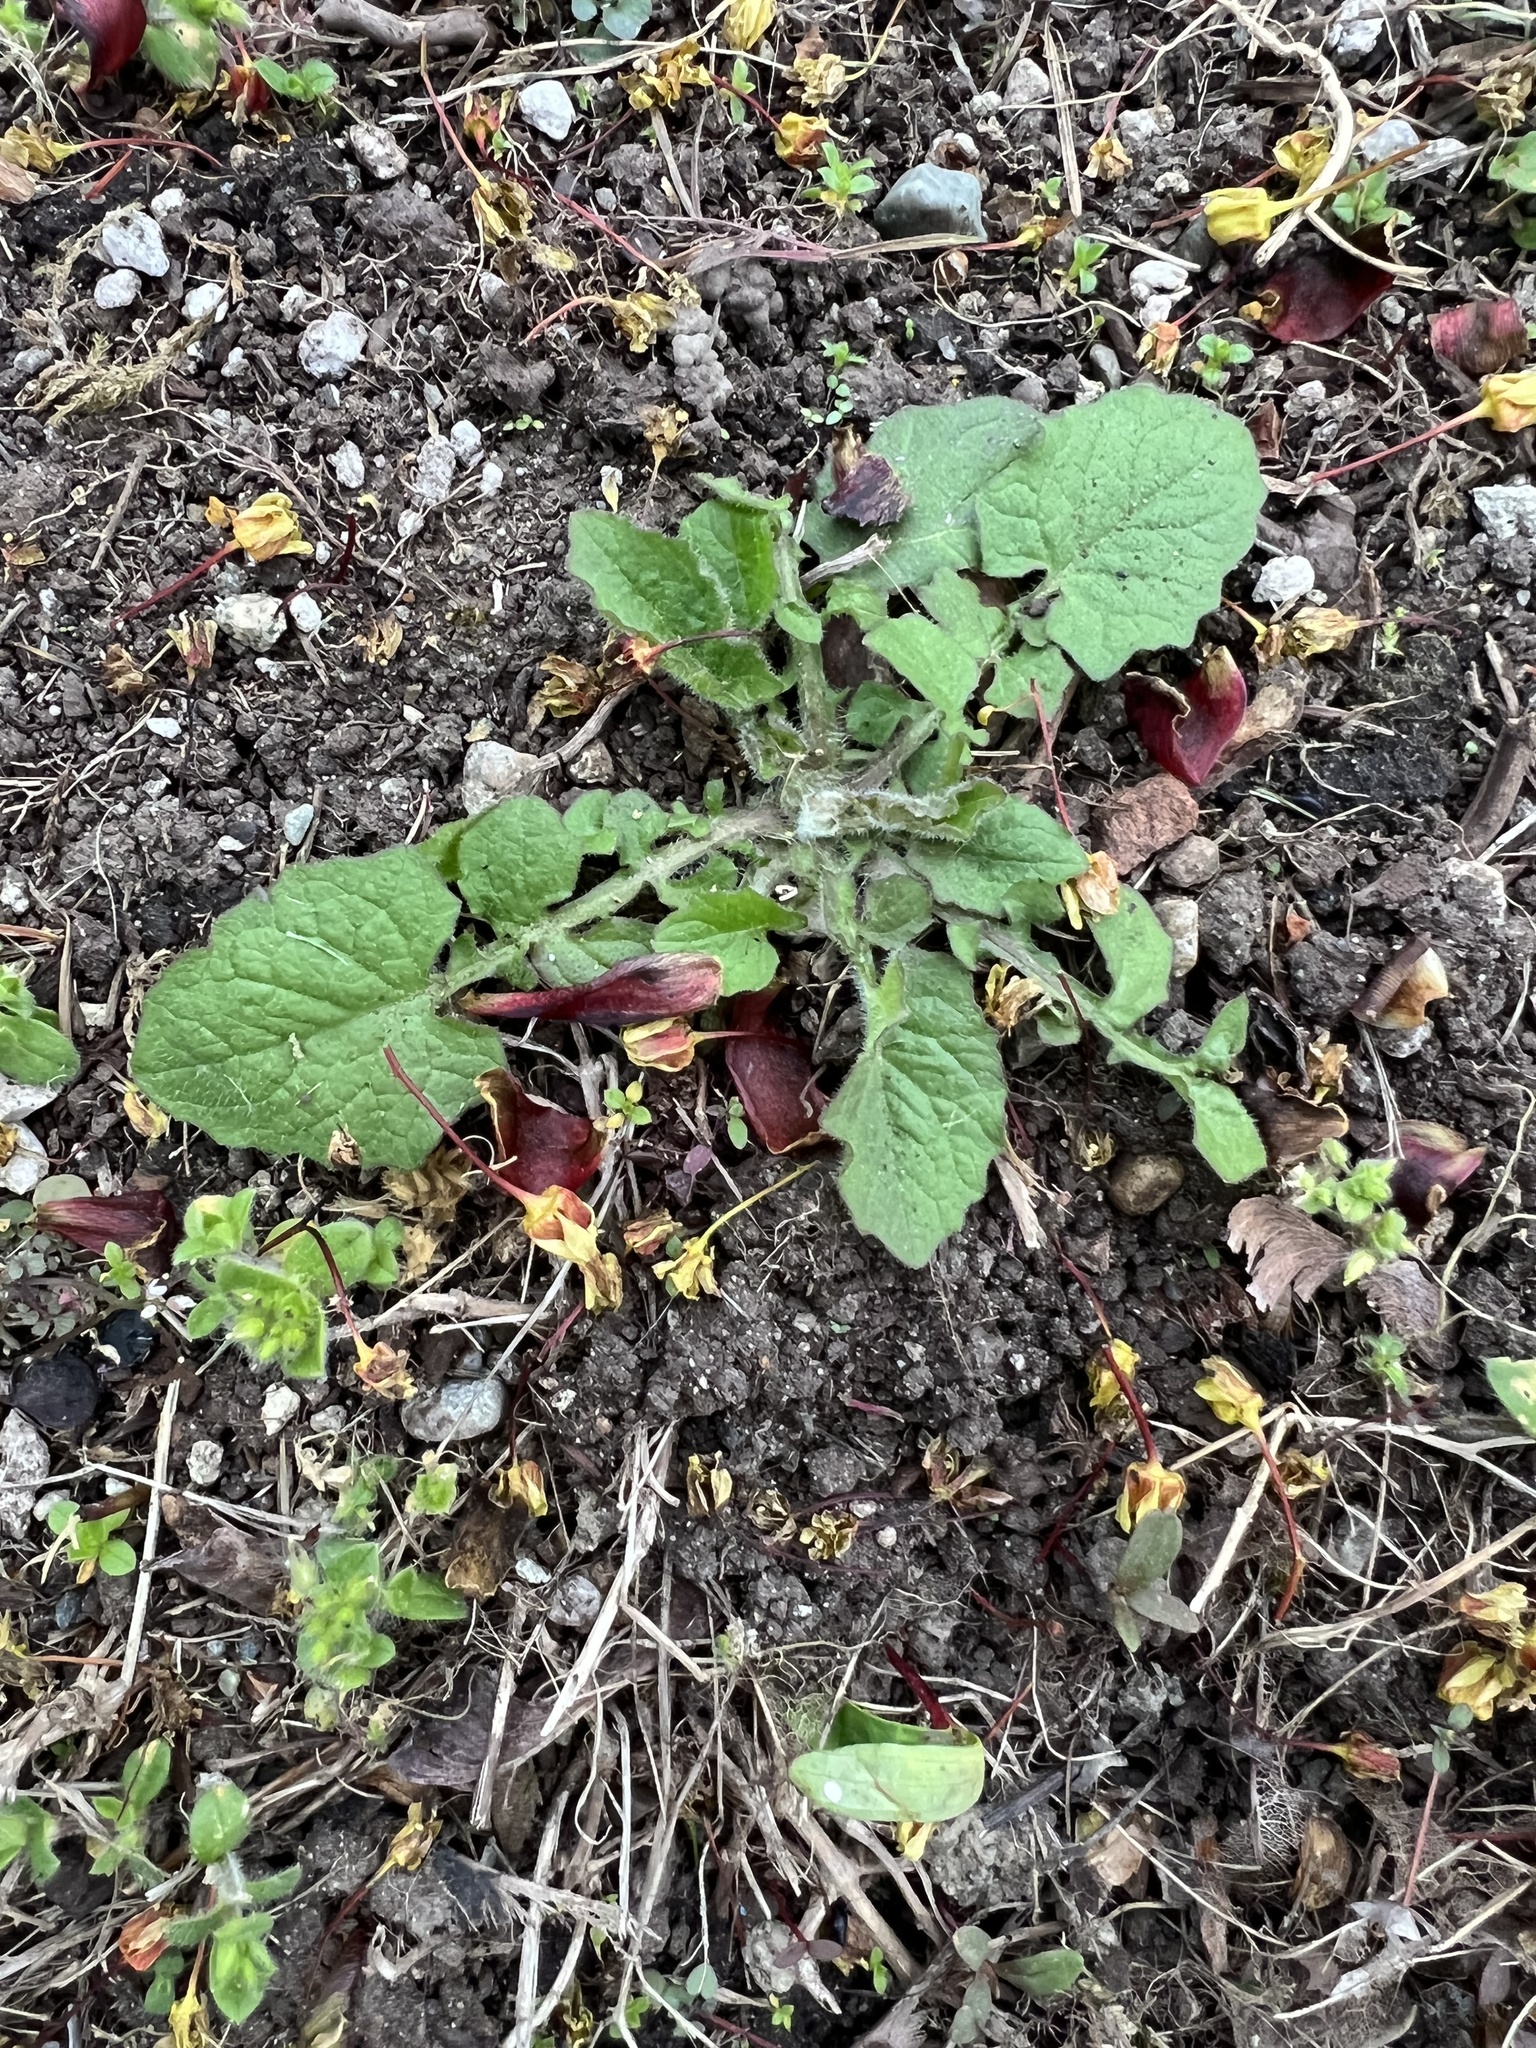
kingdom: Plantae
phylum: Tracheophyta
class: Magnoliopsida
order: Asterales
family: Asteraceae
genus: Lapsana
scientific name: Lapsana communis
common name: Nipplewort
